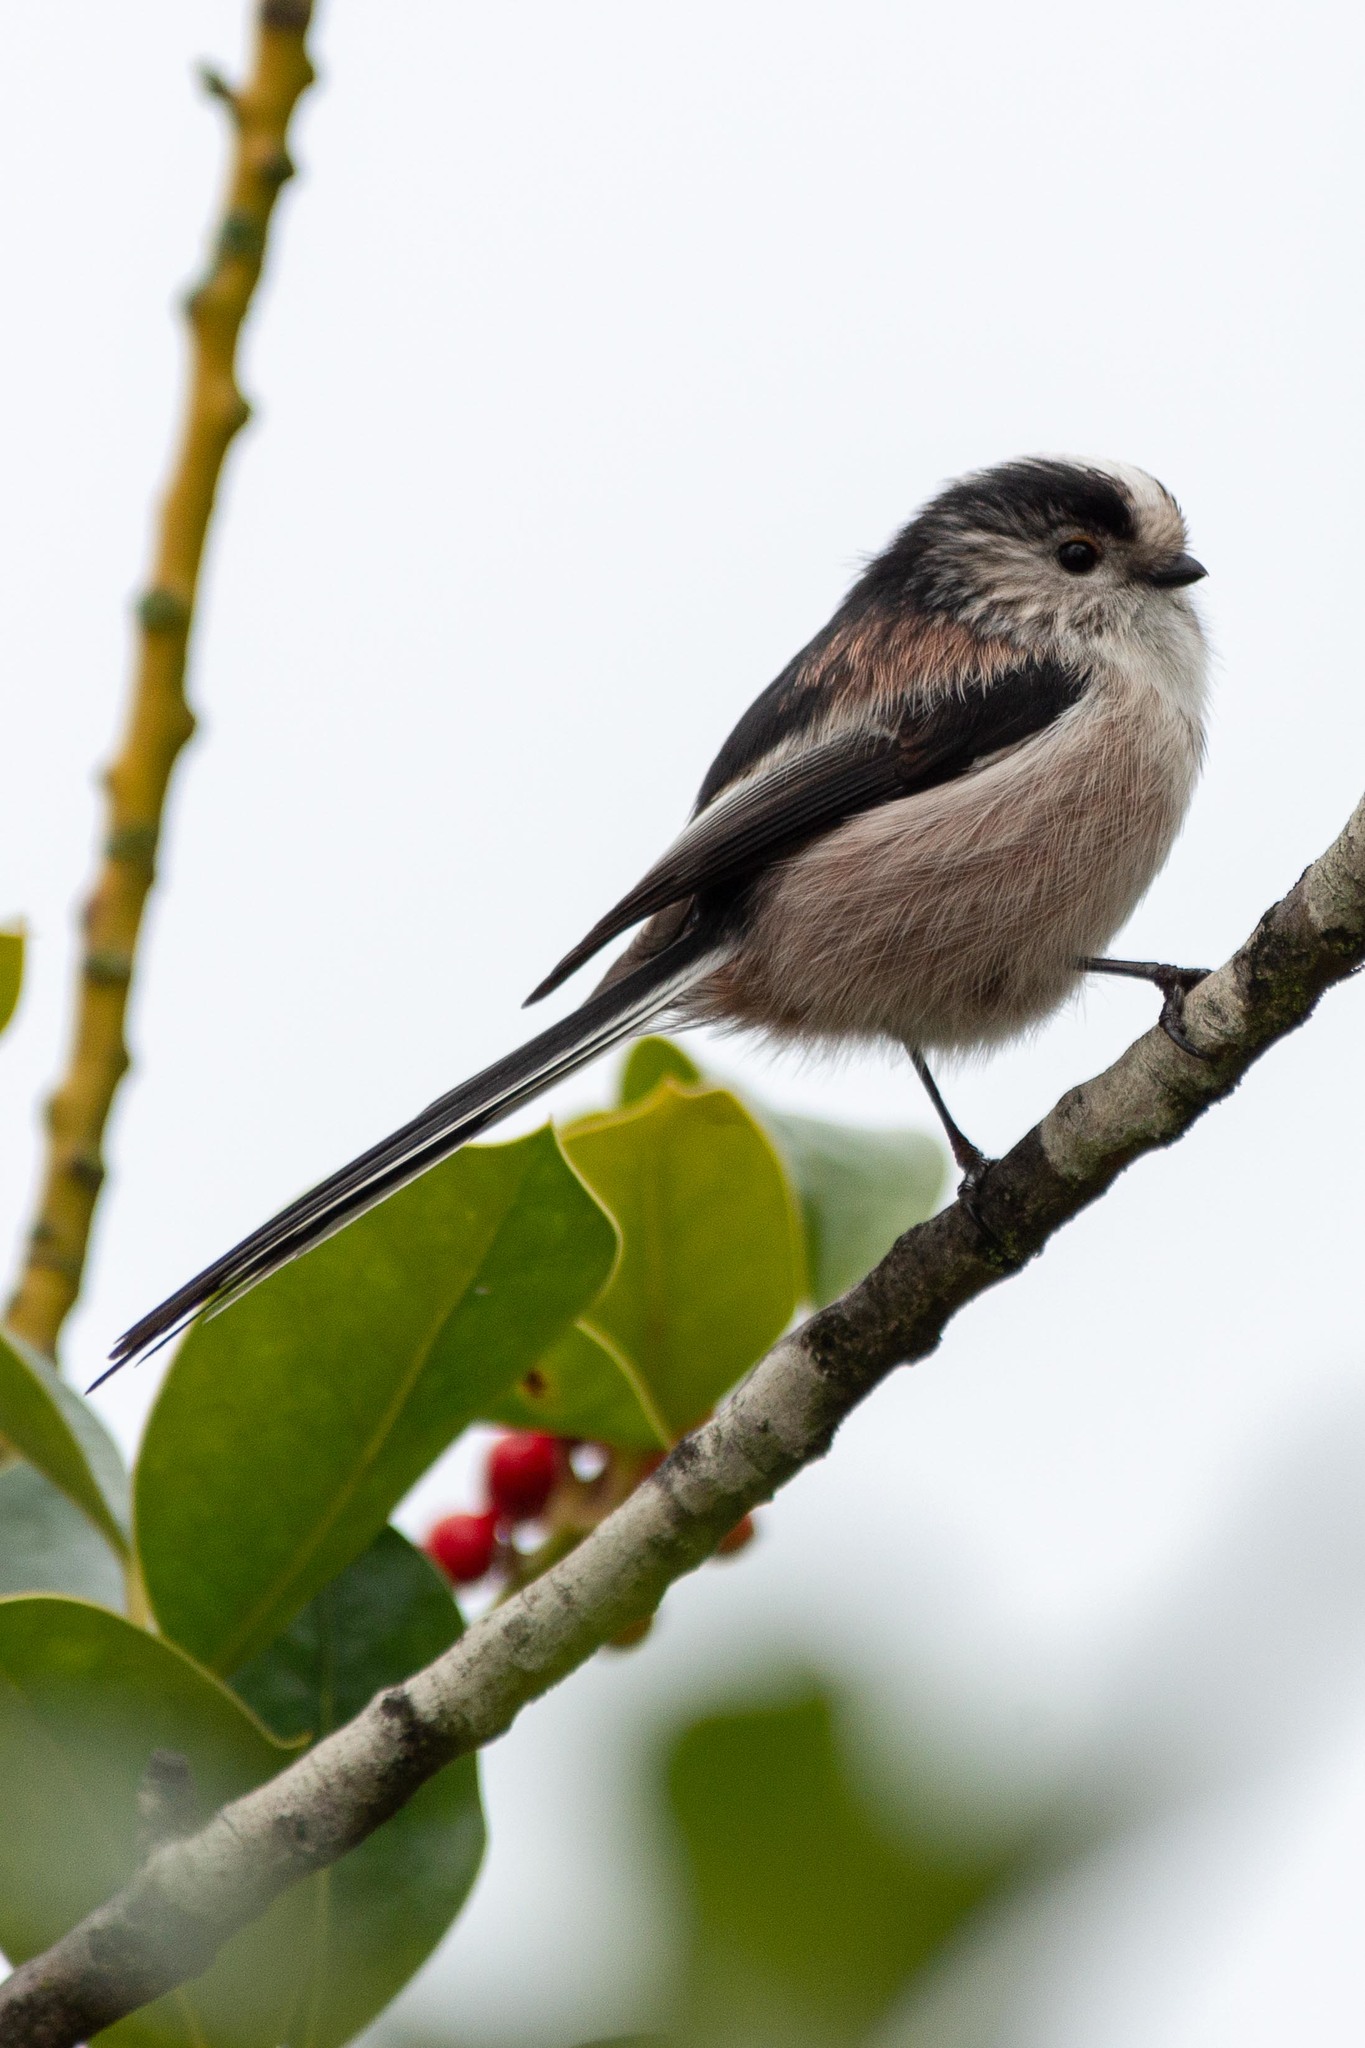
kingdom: Animalia
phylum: Chordata
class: Aves
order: Passeriformes
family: Aegithalidae
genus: Aegithalos
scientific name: Aegithalos caudatus
